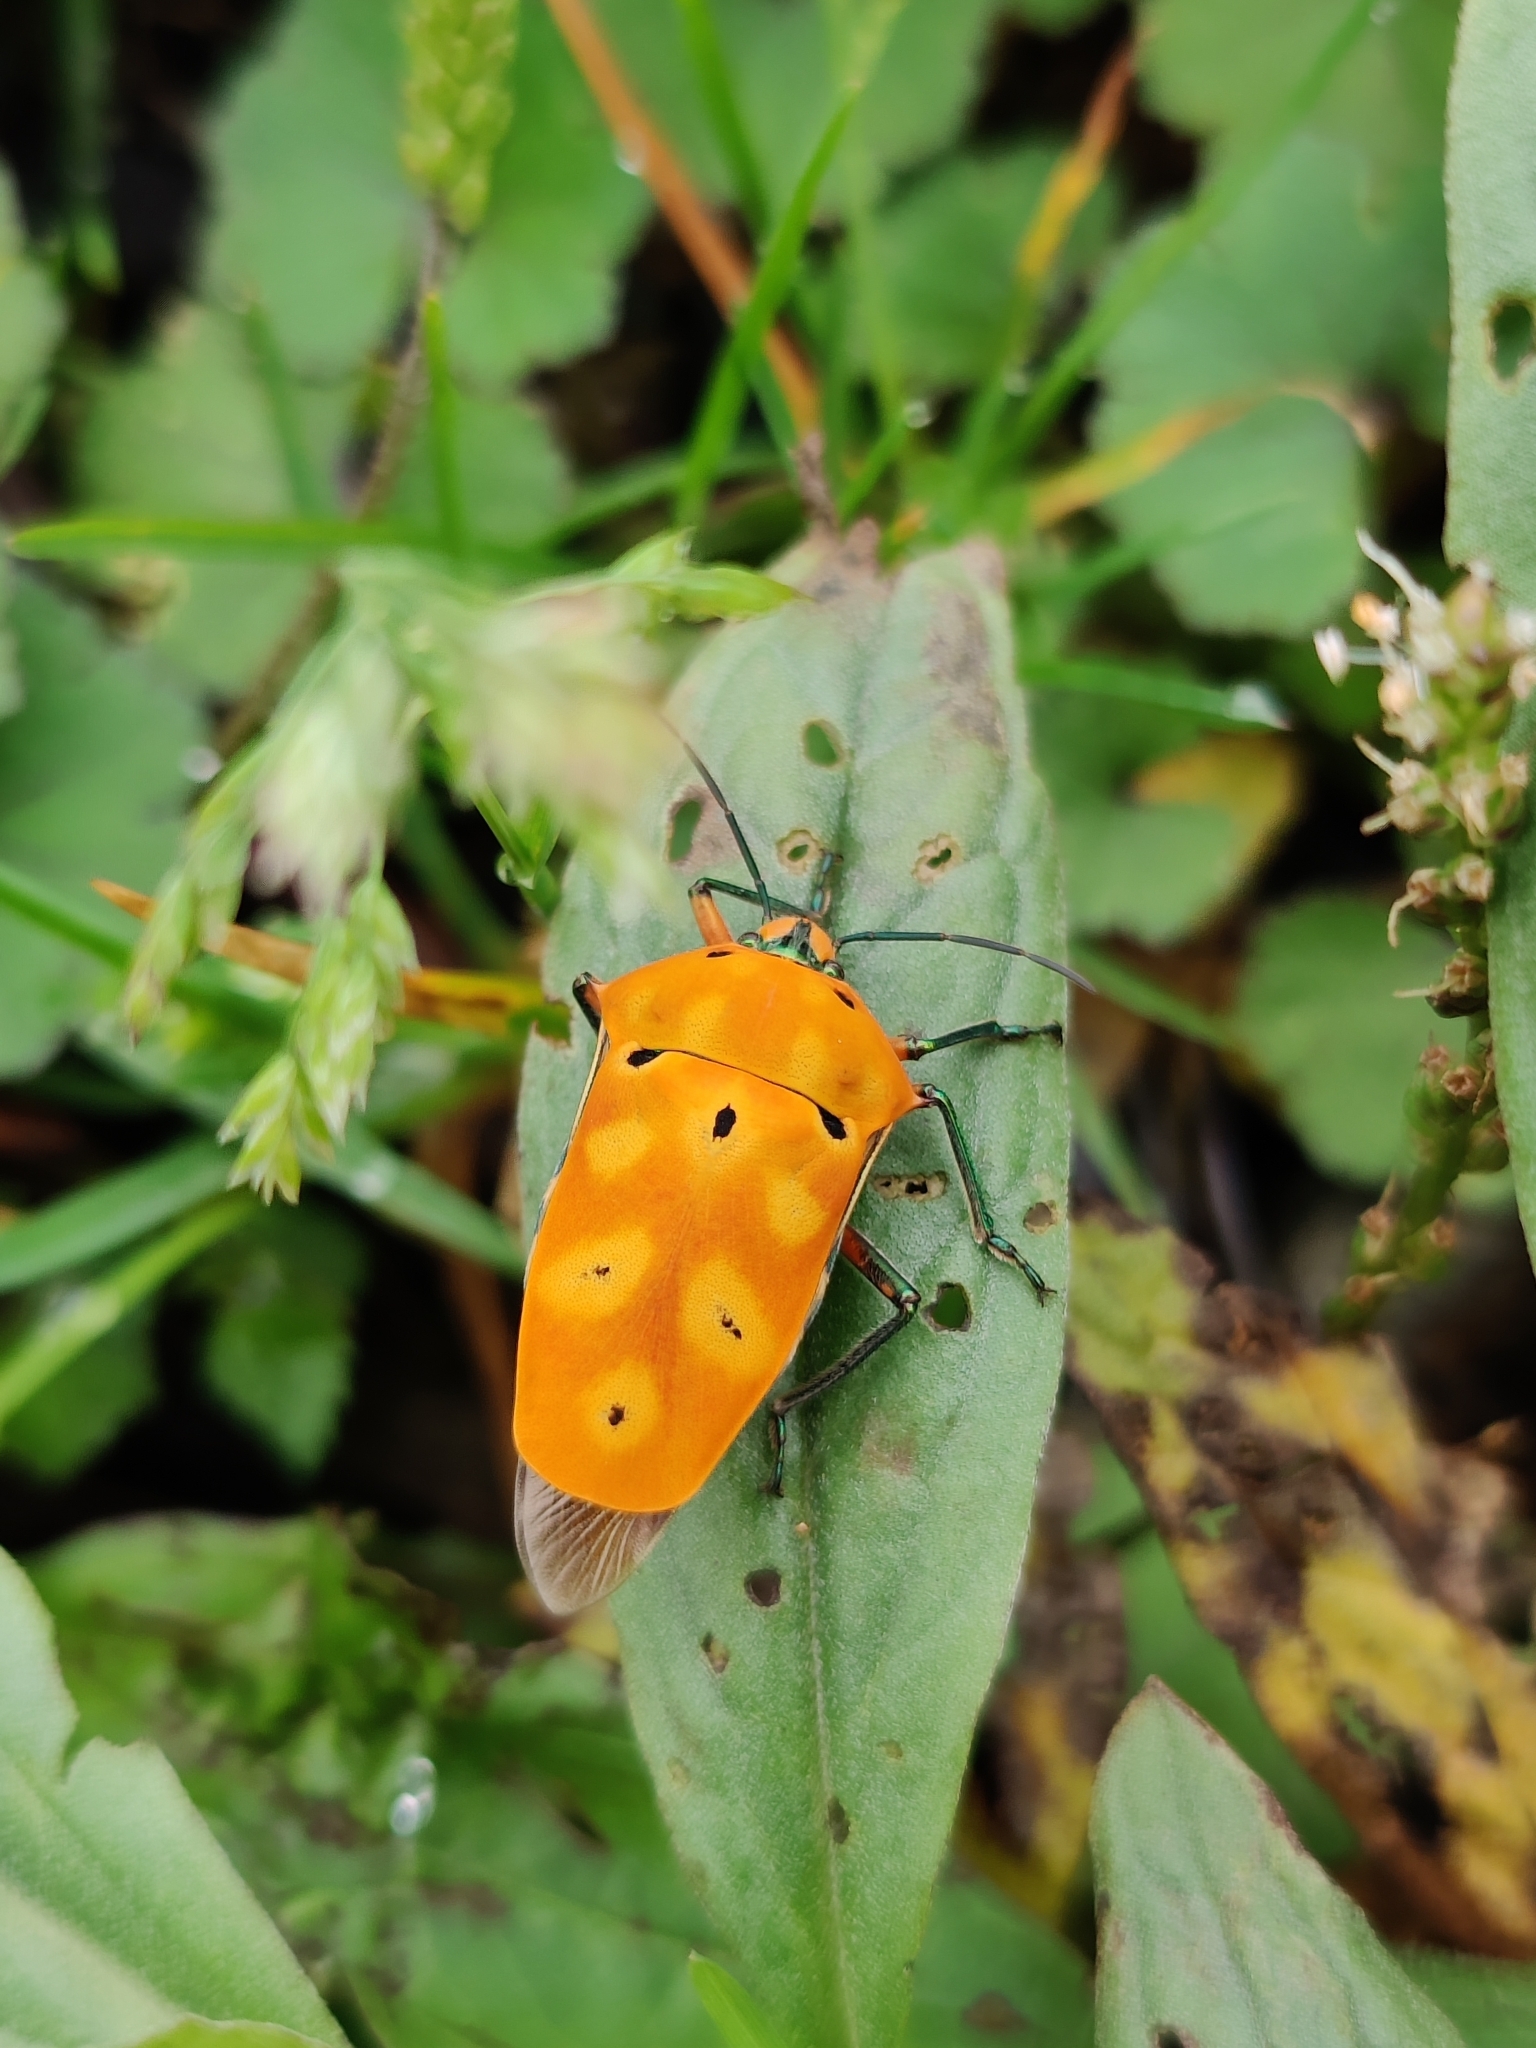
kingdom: Animalia
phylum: Arthropoda
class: Insecta
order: Hemiptera
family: Scutelleridae
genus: Cantao
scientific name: Cantao ocellatus
